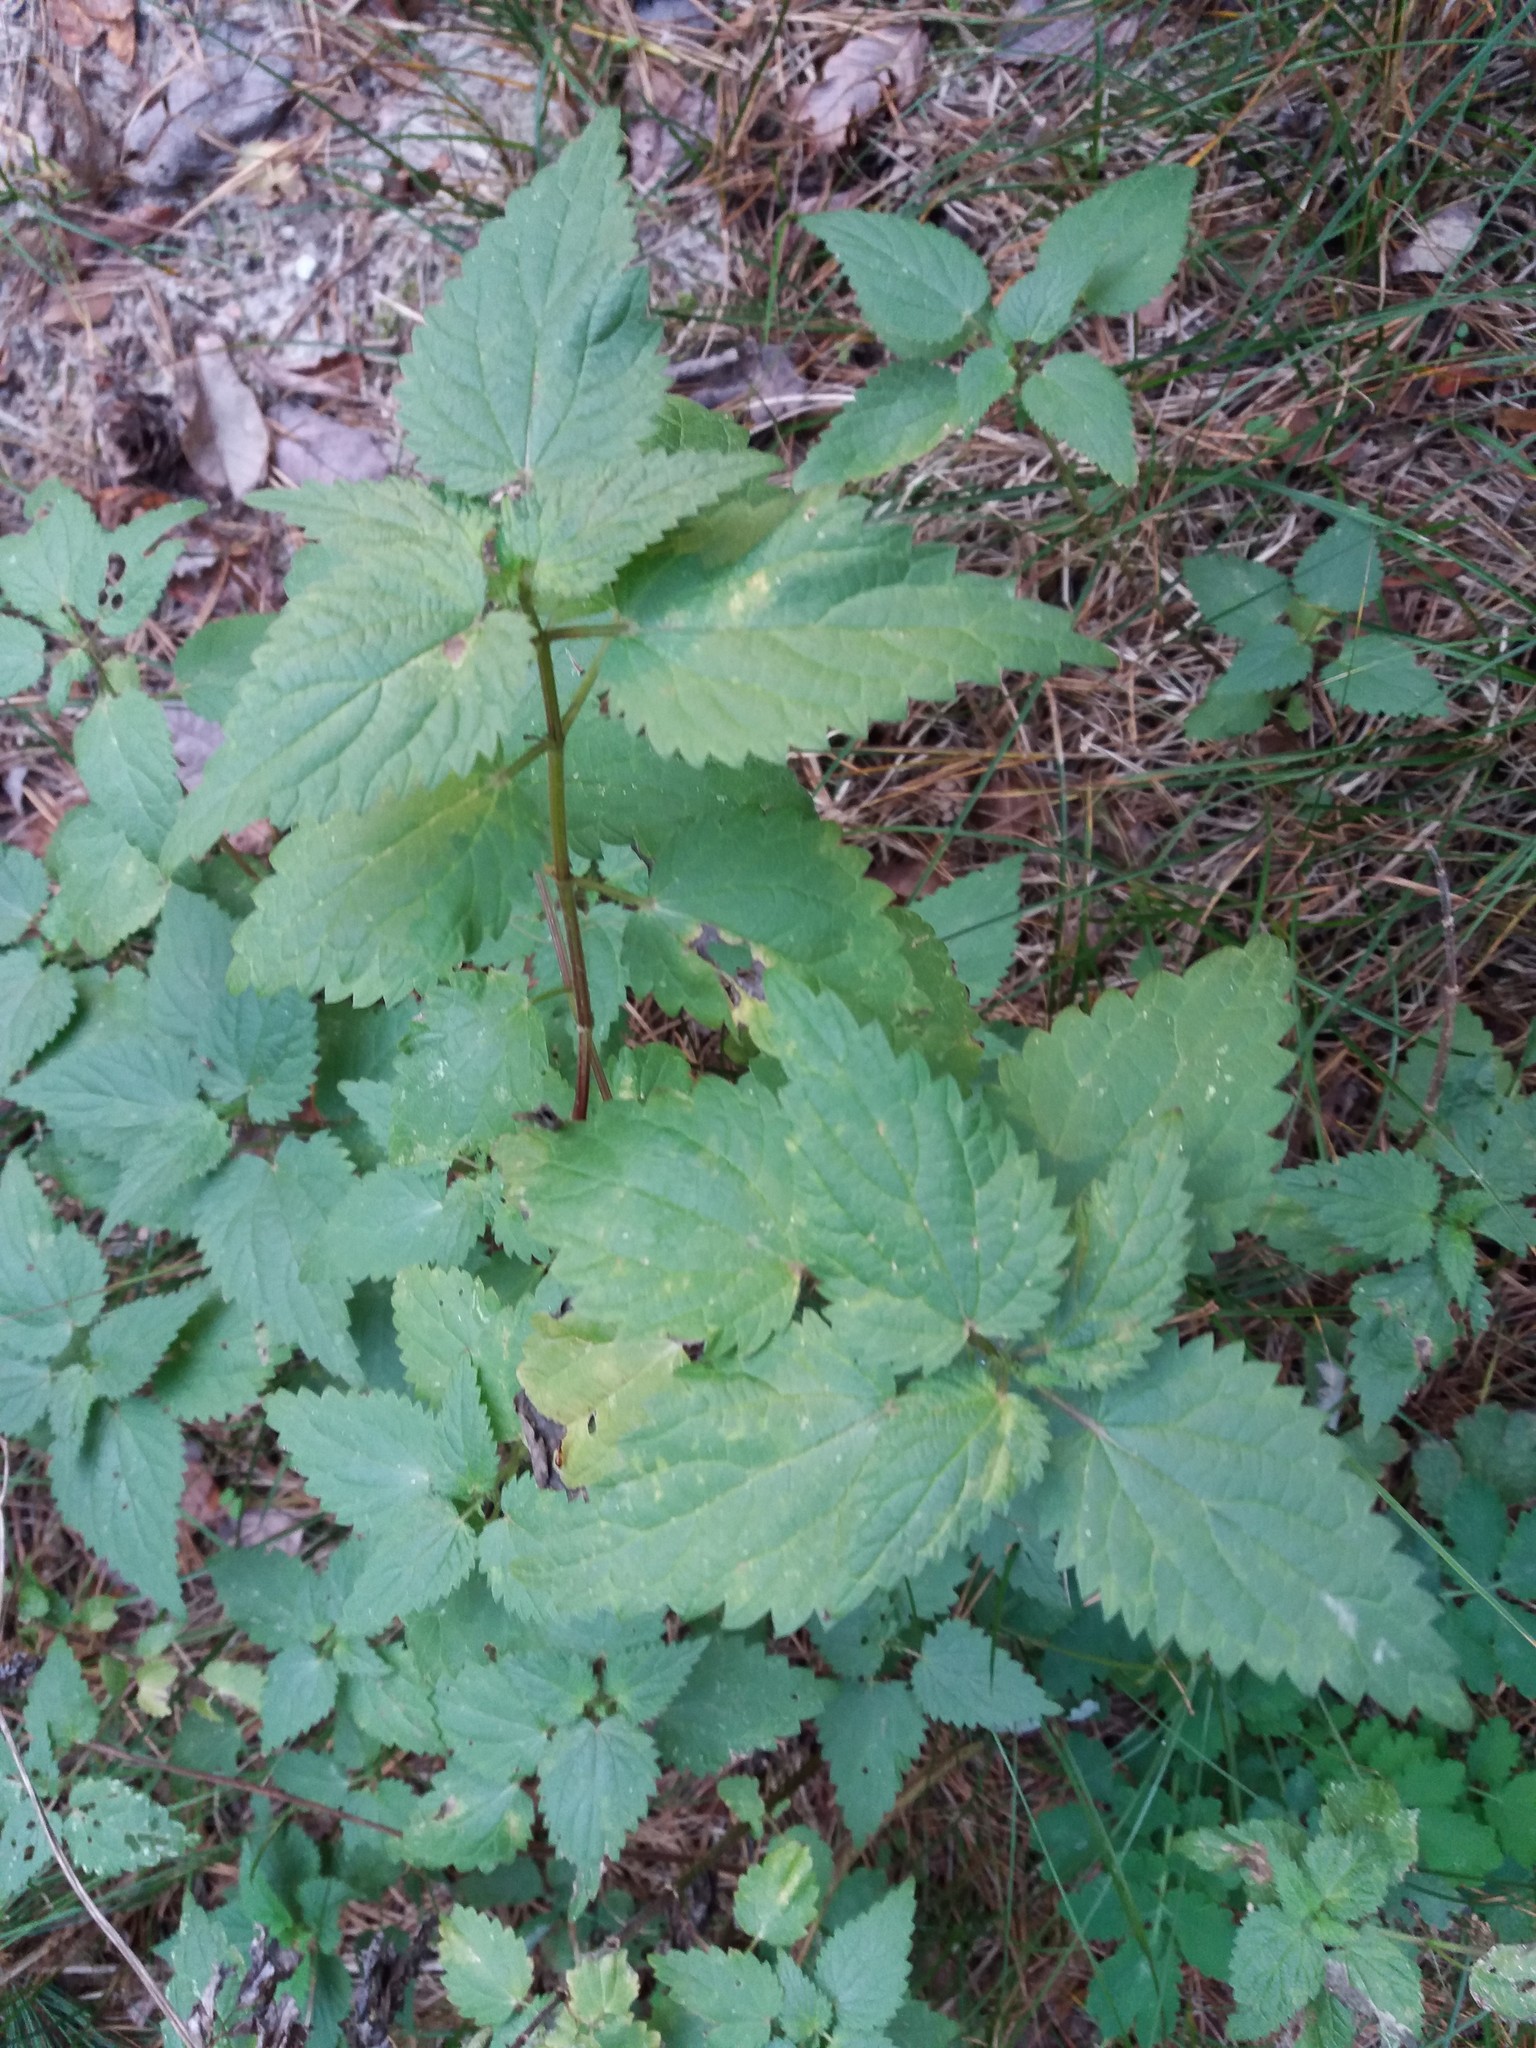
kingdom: Plantae
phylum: Tracheophyta
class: Magnoliopsida
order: Rosales
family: Urticaceae
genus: Urtica
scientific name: Urtica dioica
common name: Common nettle
